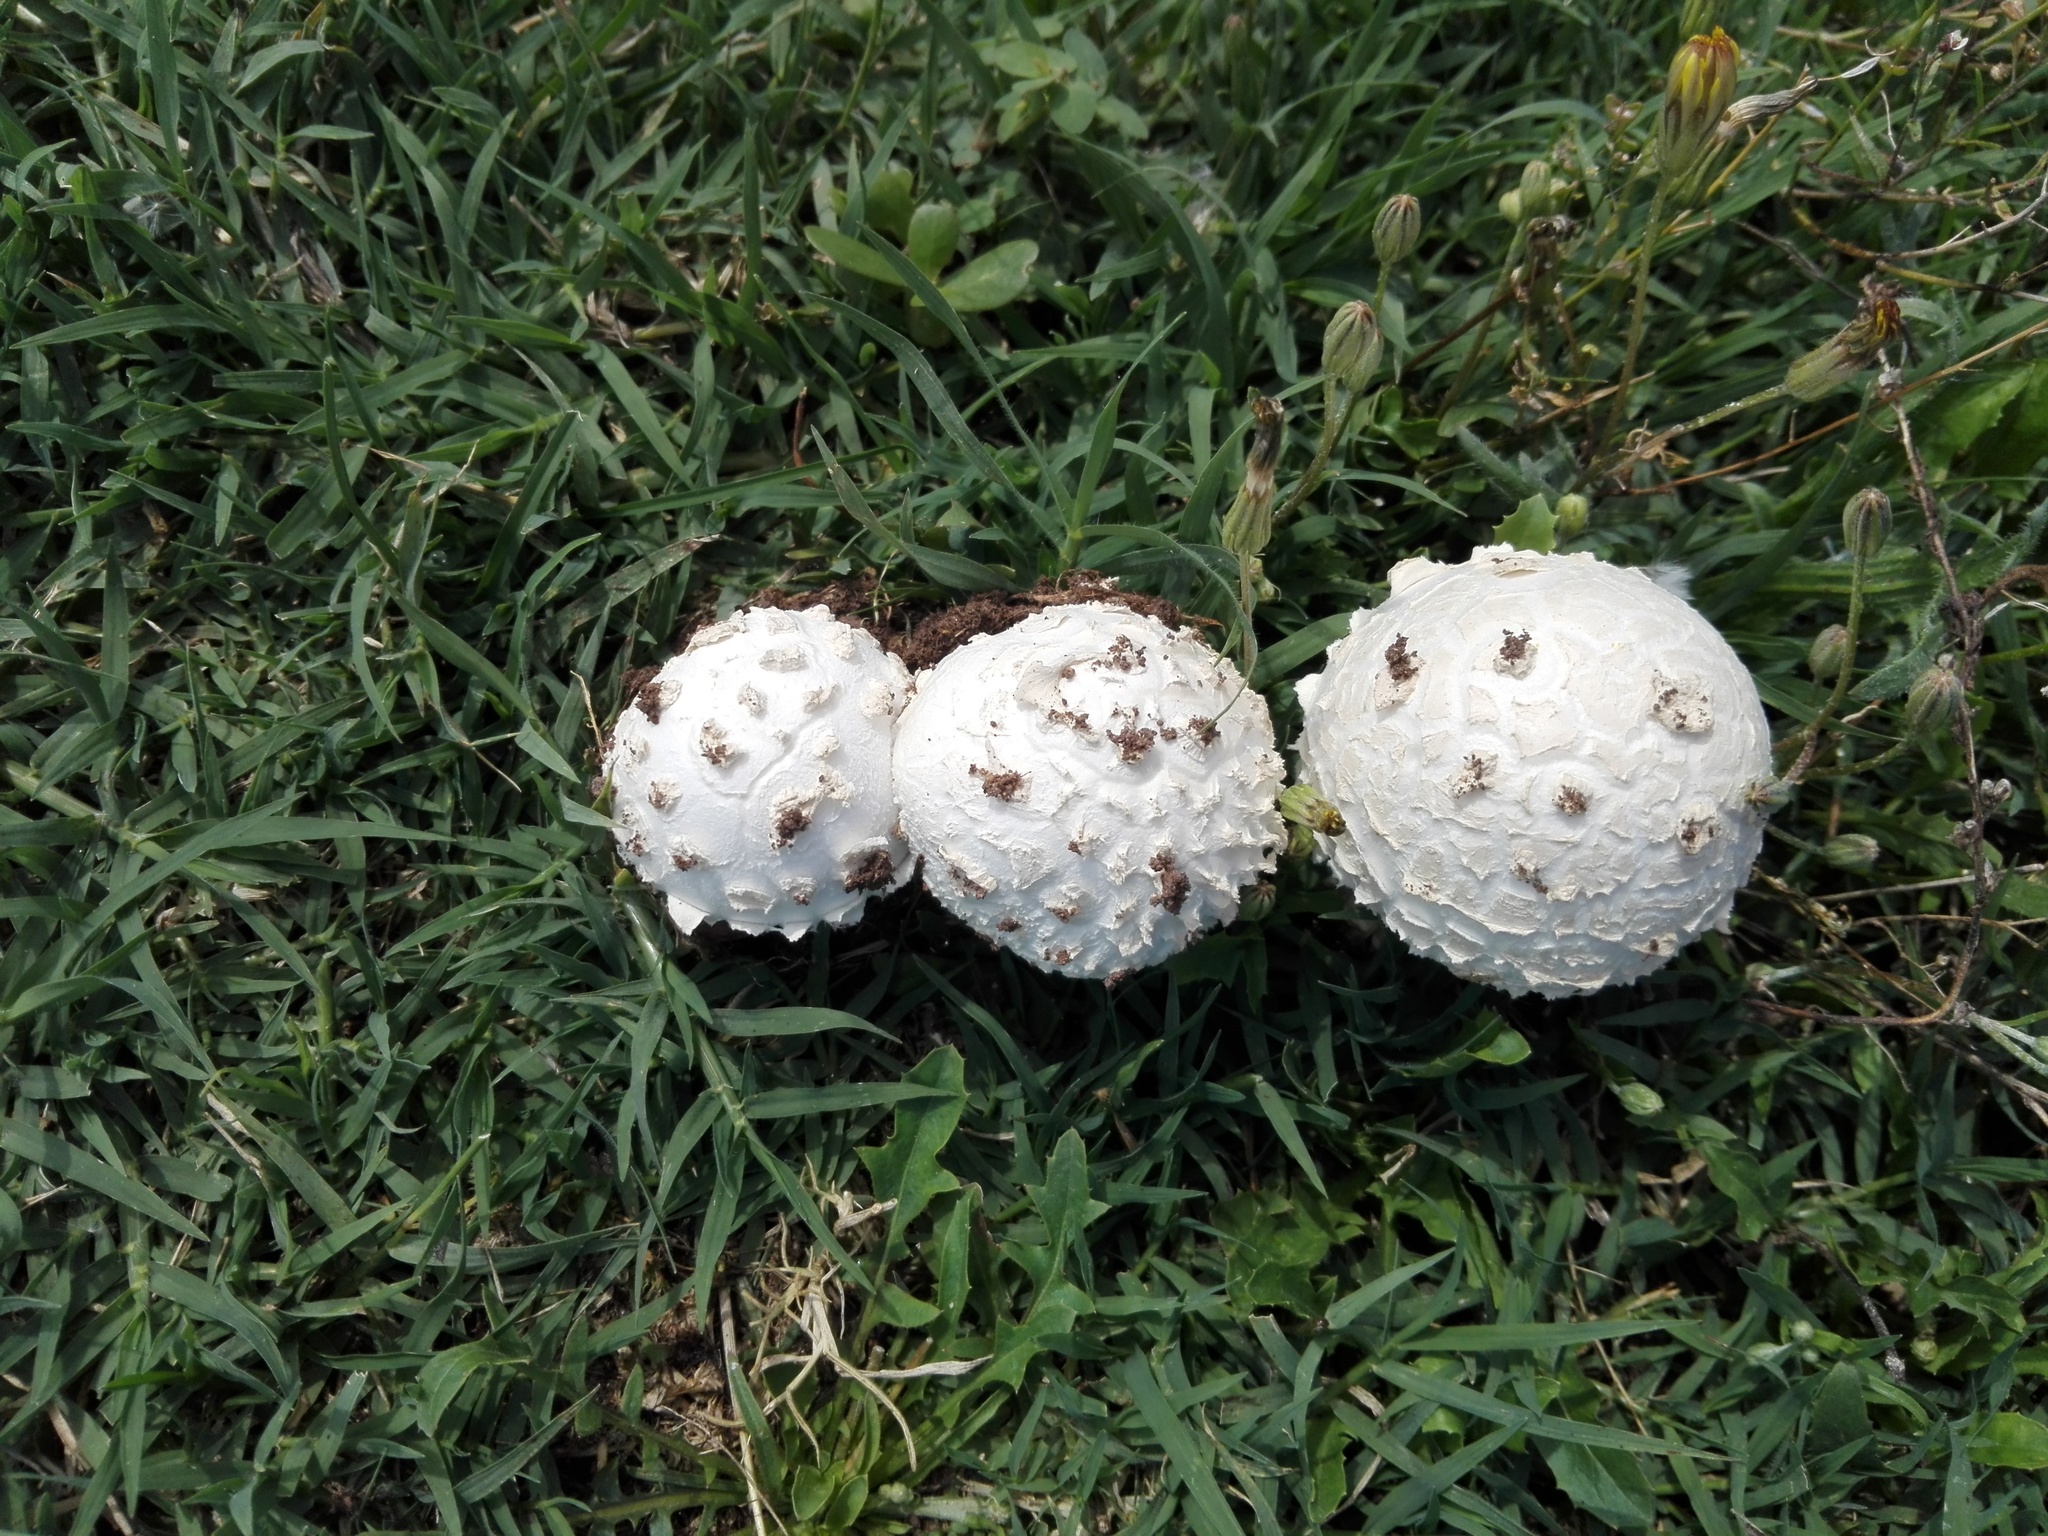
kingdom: Fungi
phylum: Basidiomycota
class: Agaricomycetes
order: Agaricales
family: Amanitaceae
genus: Amanita
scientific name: Amanita vittadinii
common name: Barefoot amanita
